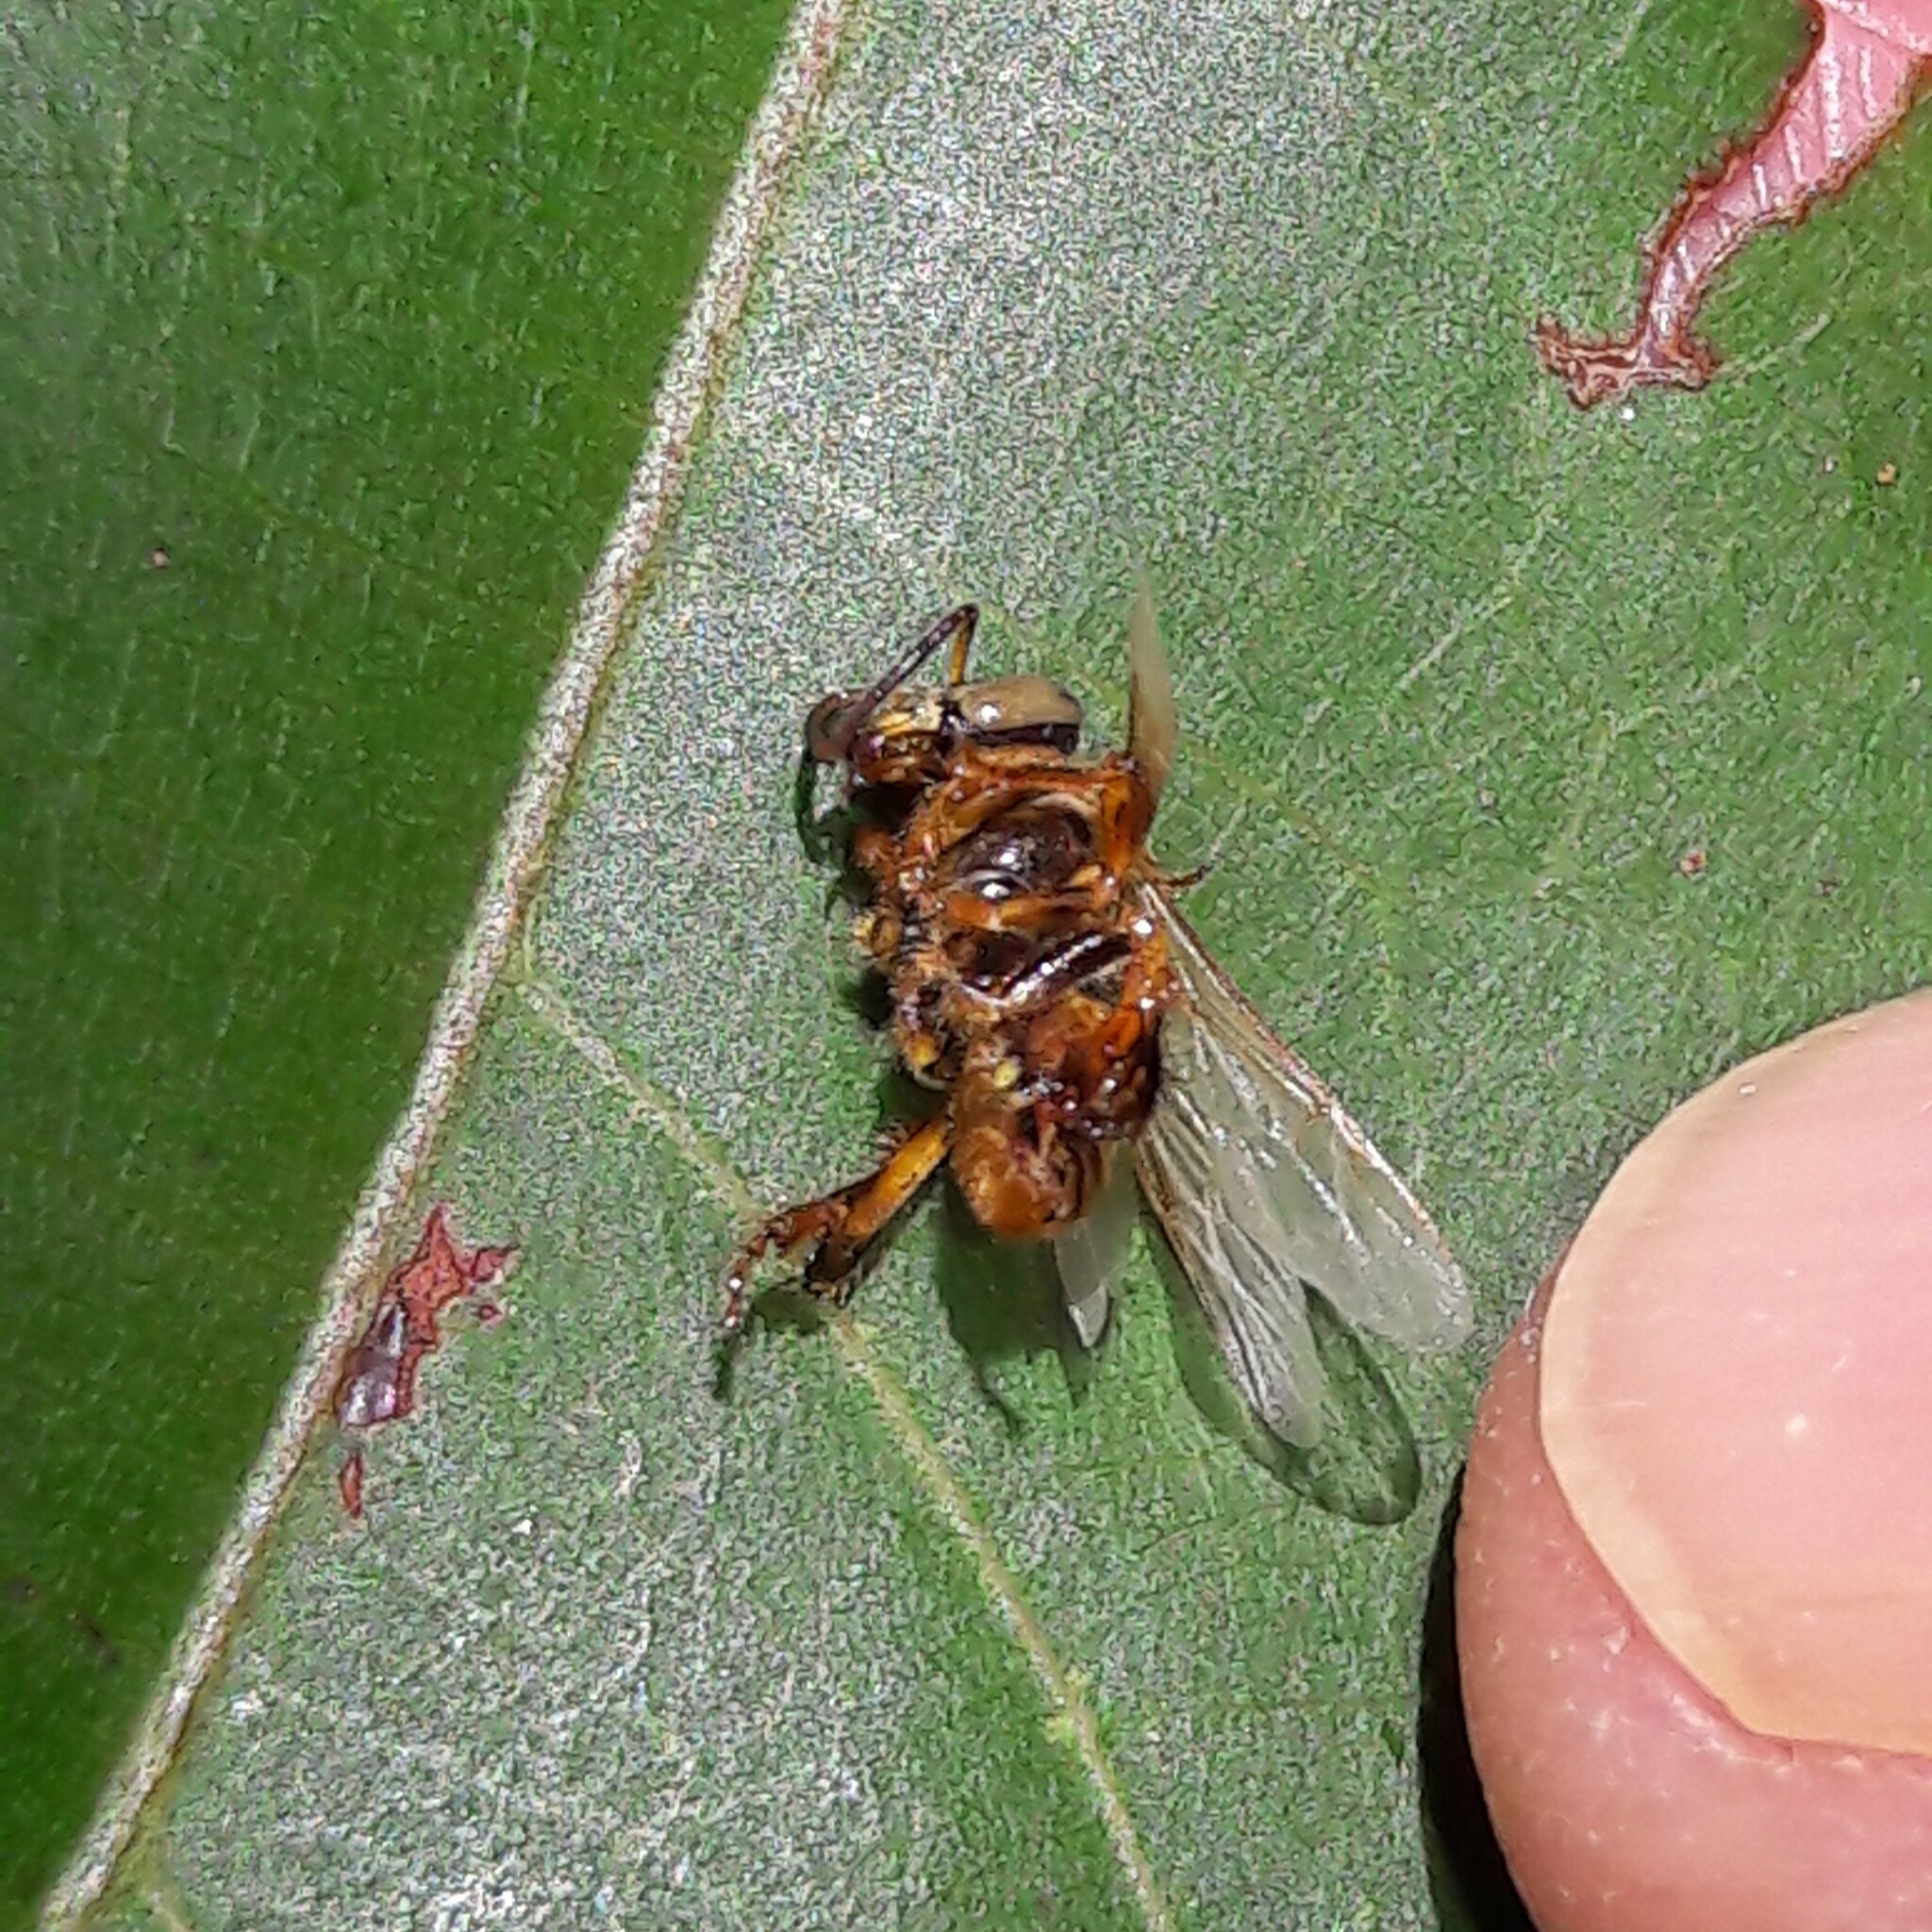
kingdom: Animalia
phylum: Arthropoda
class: Insecta
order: Hymenoptera
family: Apidae
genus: Tetragona
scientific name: Tetragona clavipes
